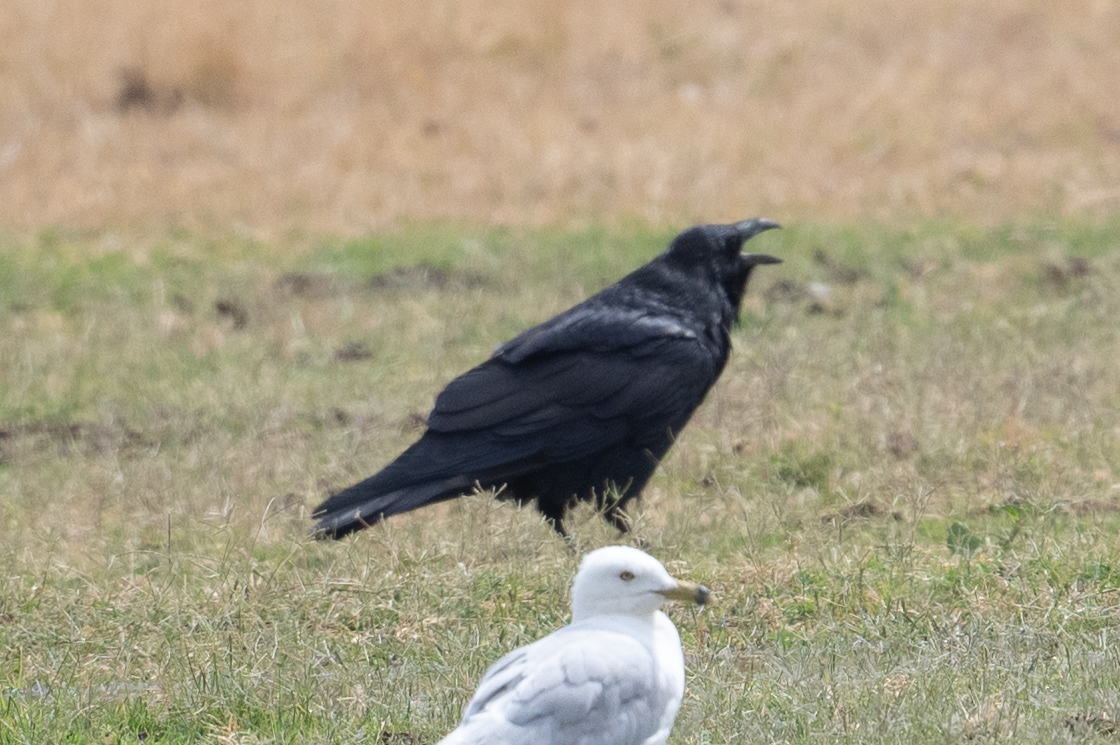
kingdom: Animalia
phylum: Chordata
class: Aves
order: Passeriformes
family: Corvidae
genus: Corvus
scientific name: Corvus corax
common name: Common raven
